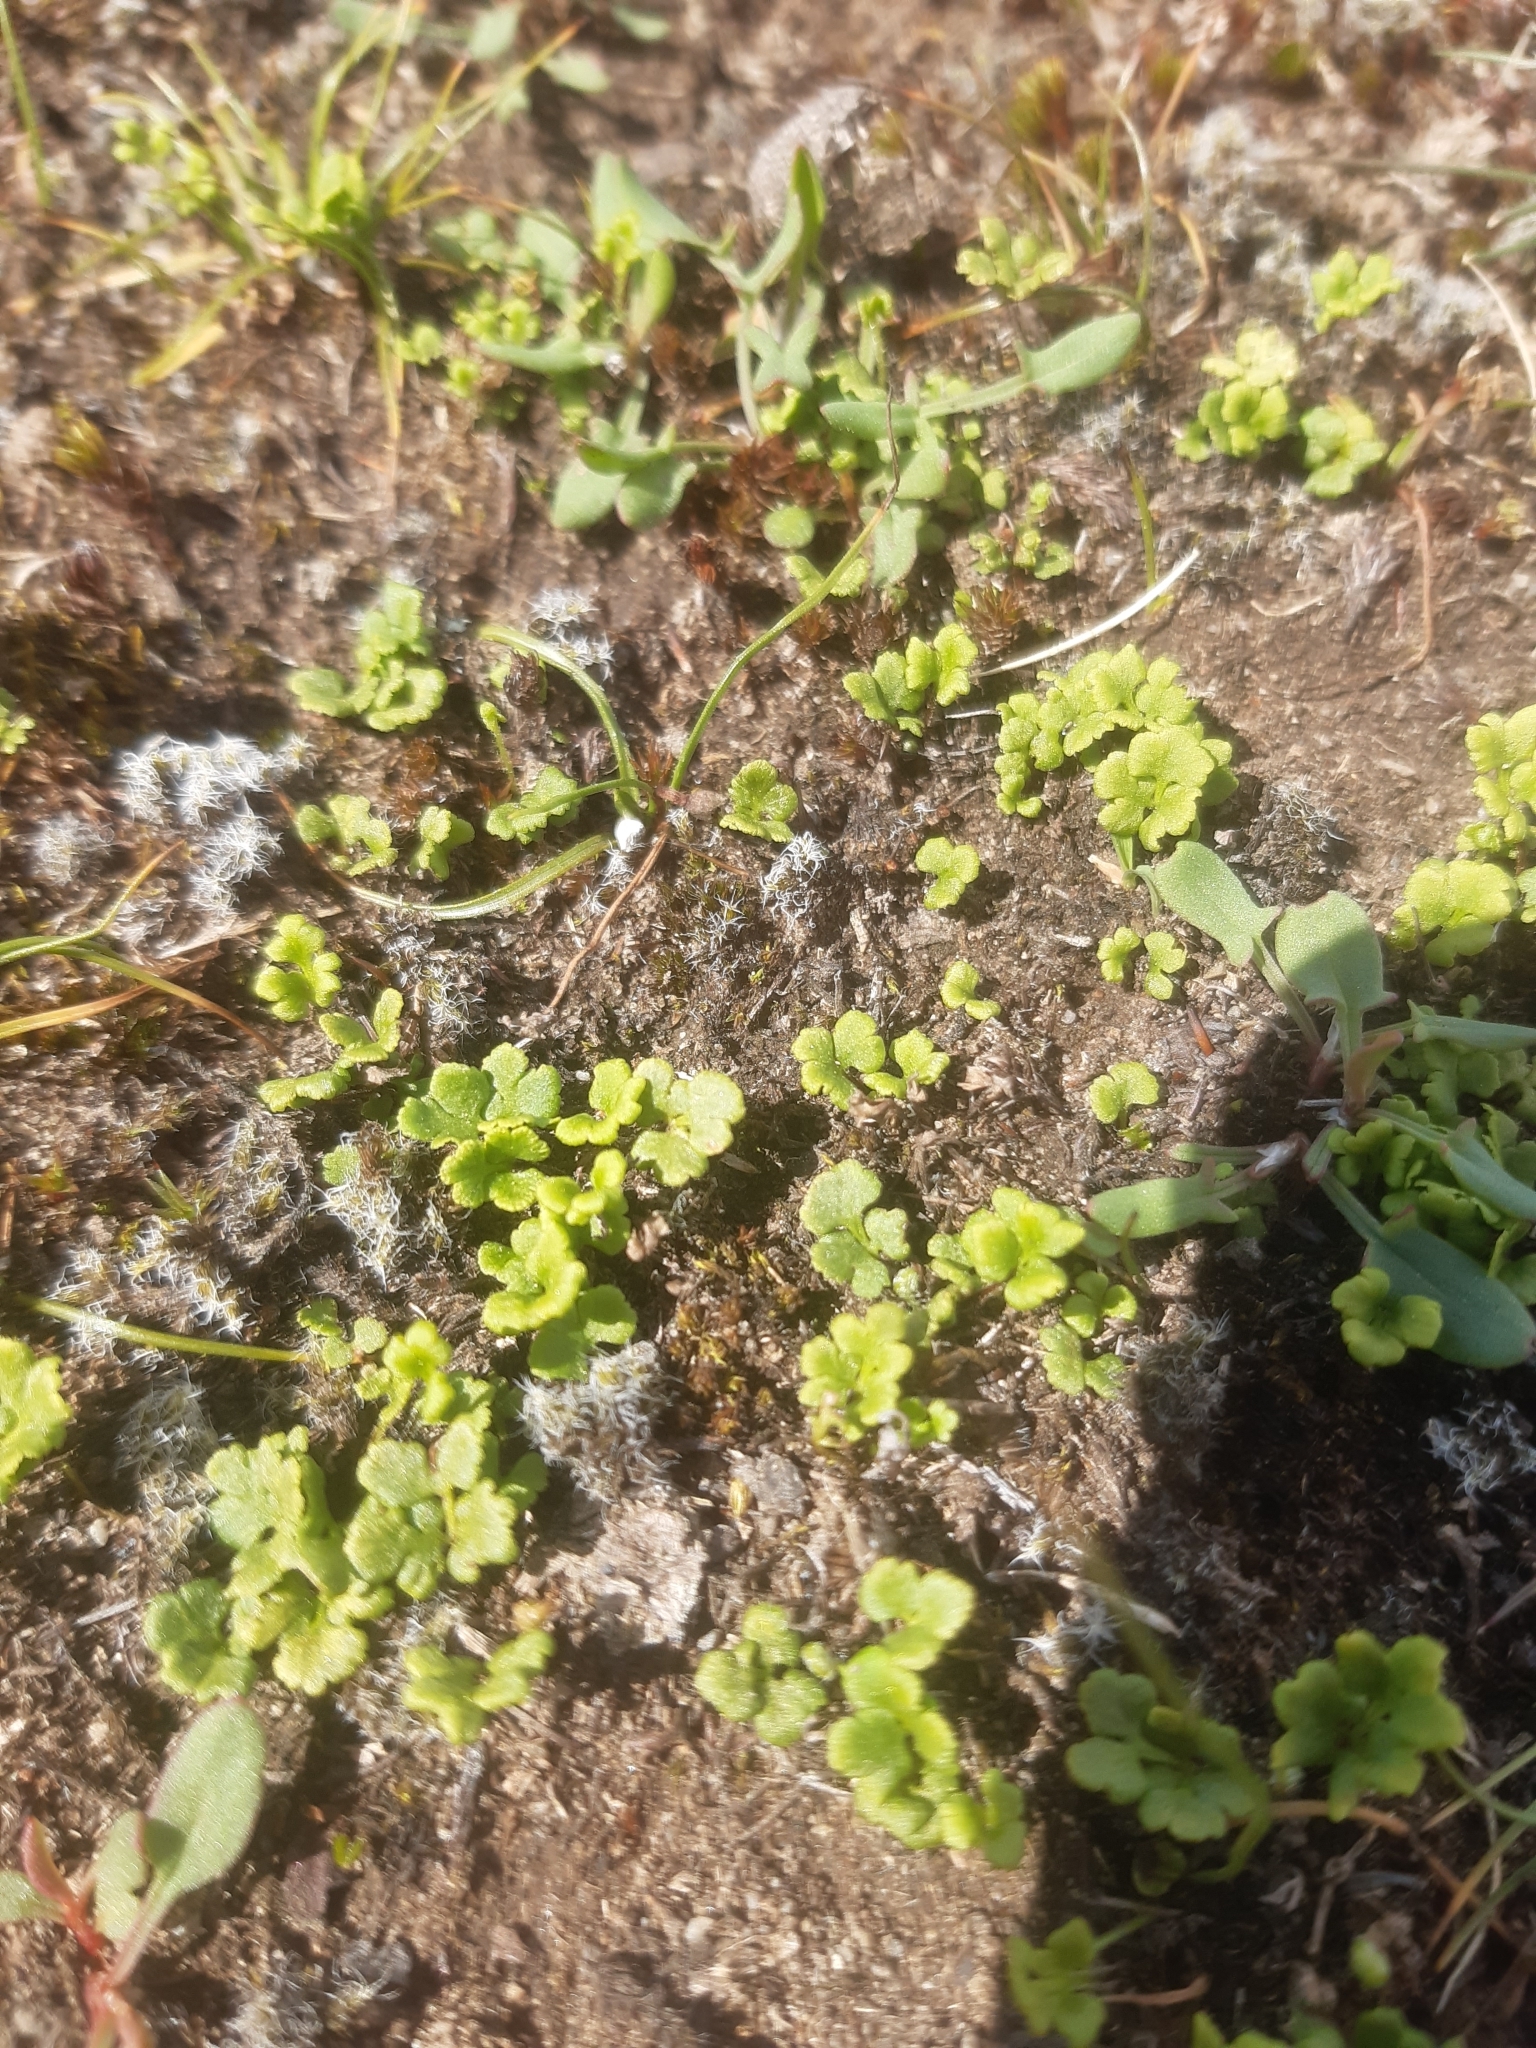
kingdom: Plantae
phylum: Tracheophyta
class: Polypodiopsida
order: Polypodiales
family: Pteridaceae
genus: Cheilanthes
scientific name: Cheilanthes sieberi
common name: Mulga fern
